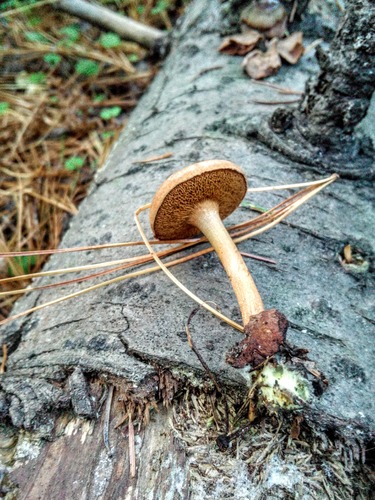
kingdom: Fungi
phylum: Basidiomycota
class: Agaricomycetes
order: Boletales
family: Boletaceae
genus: Chalciporus
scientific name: Chalciporus piperatus
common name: Peppery bolete
